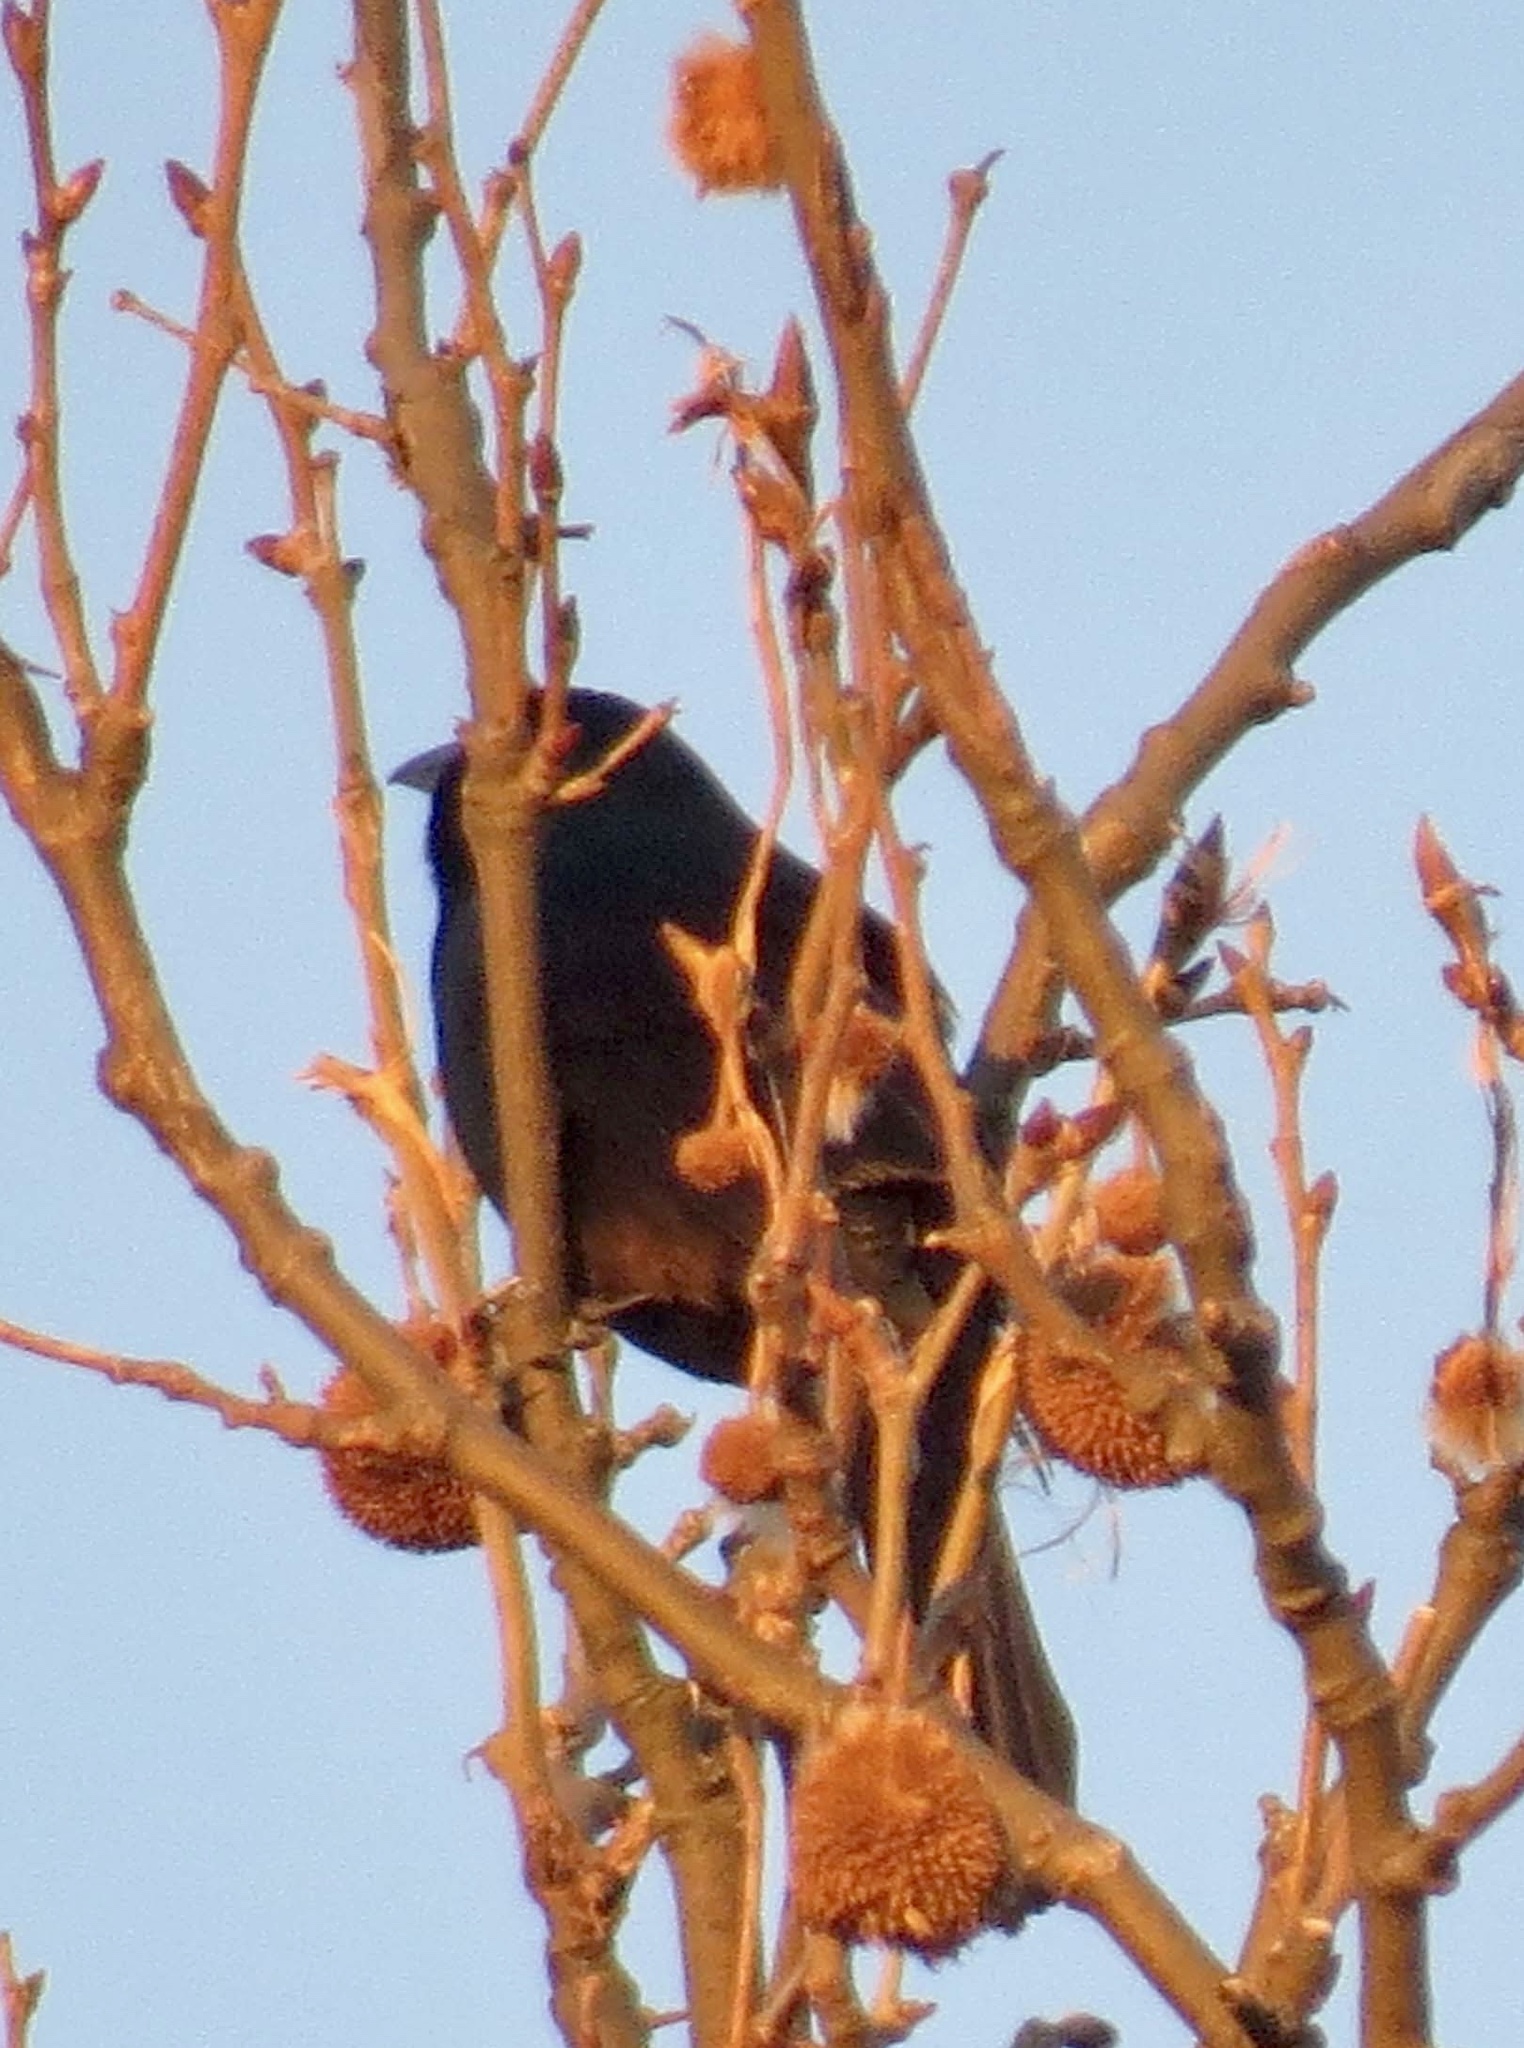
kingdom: Animalia
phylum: Chordata
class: Aves
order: Passeriformes
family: Icteridae
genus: Quiscalus
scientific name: Quiscalus quiscula
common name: Common grackle
